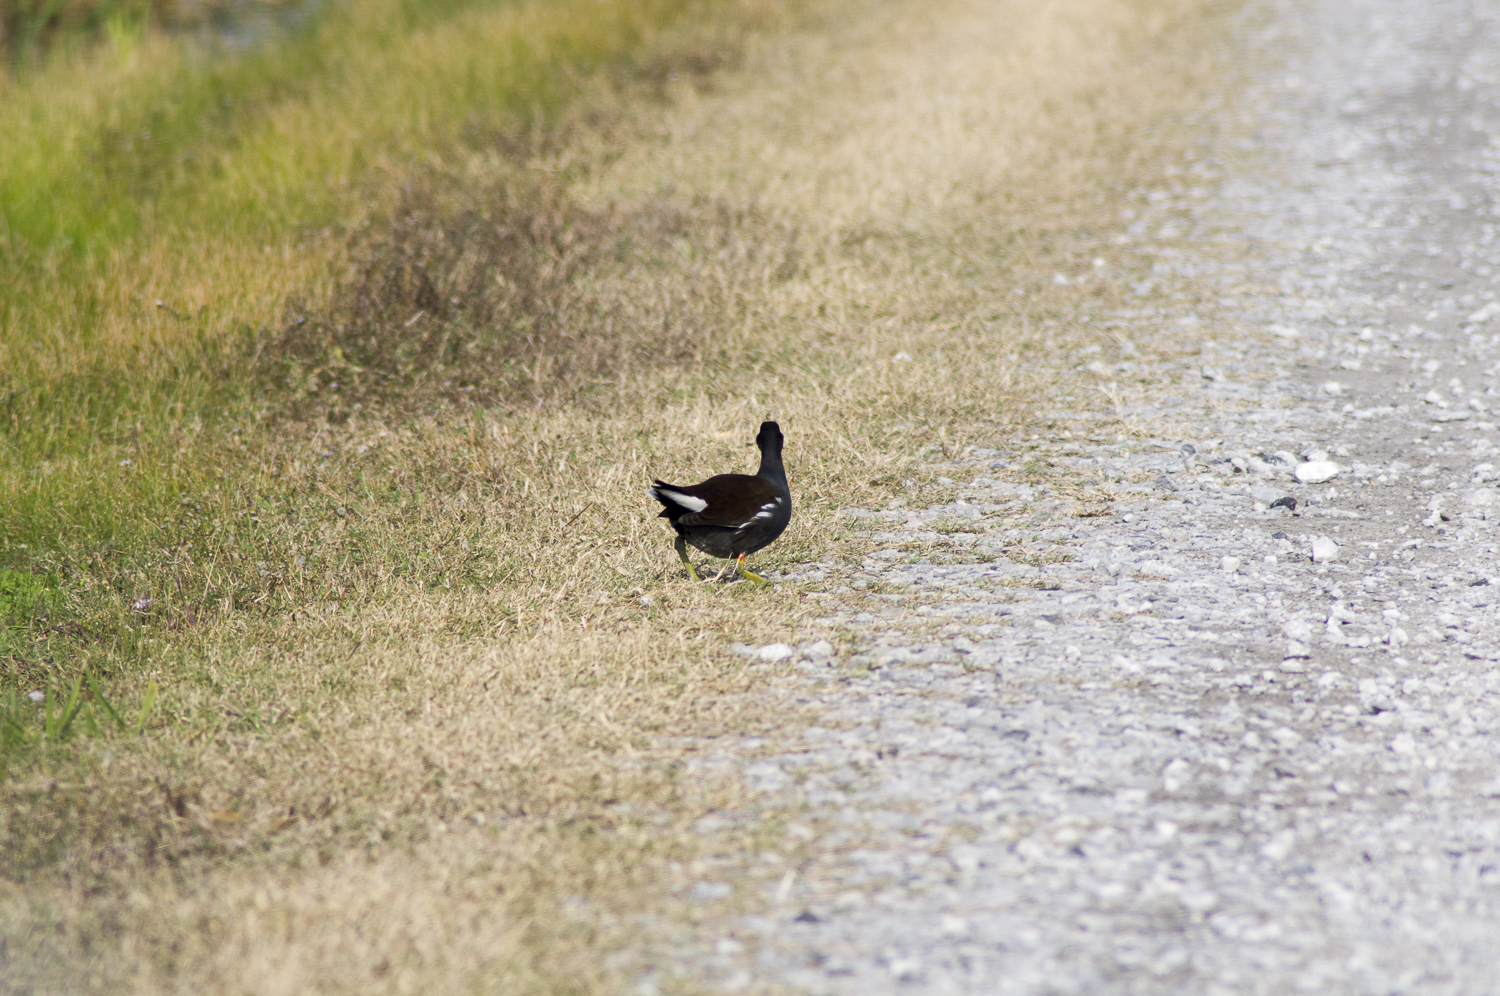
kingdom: Animalia
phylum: Chordata
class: Aves
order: Gruiformes
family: Rallidae
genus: Gallinula
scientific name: Gallinula chloropus
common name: Common moorhen
